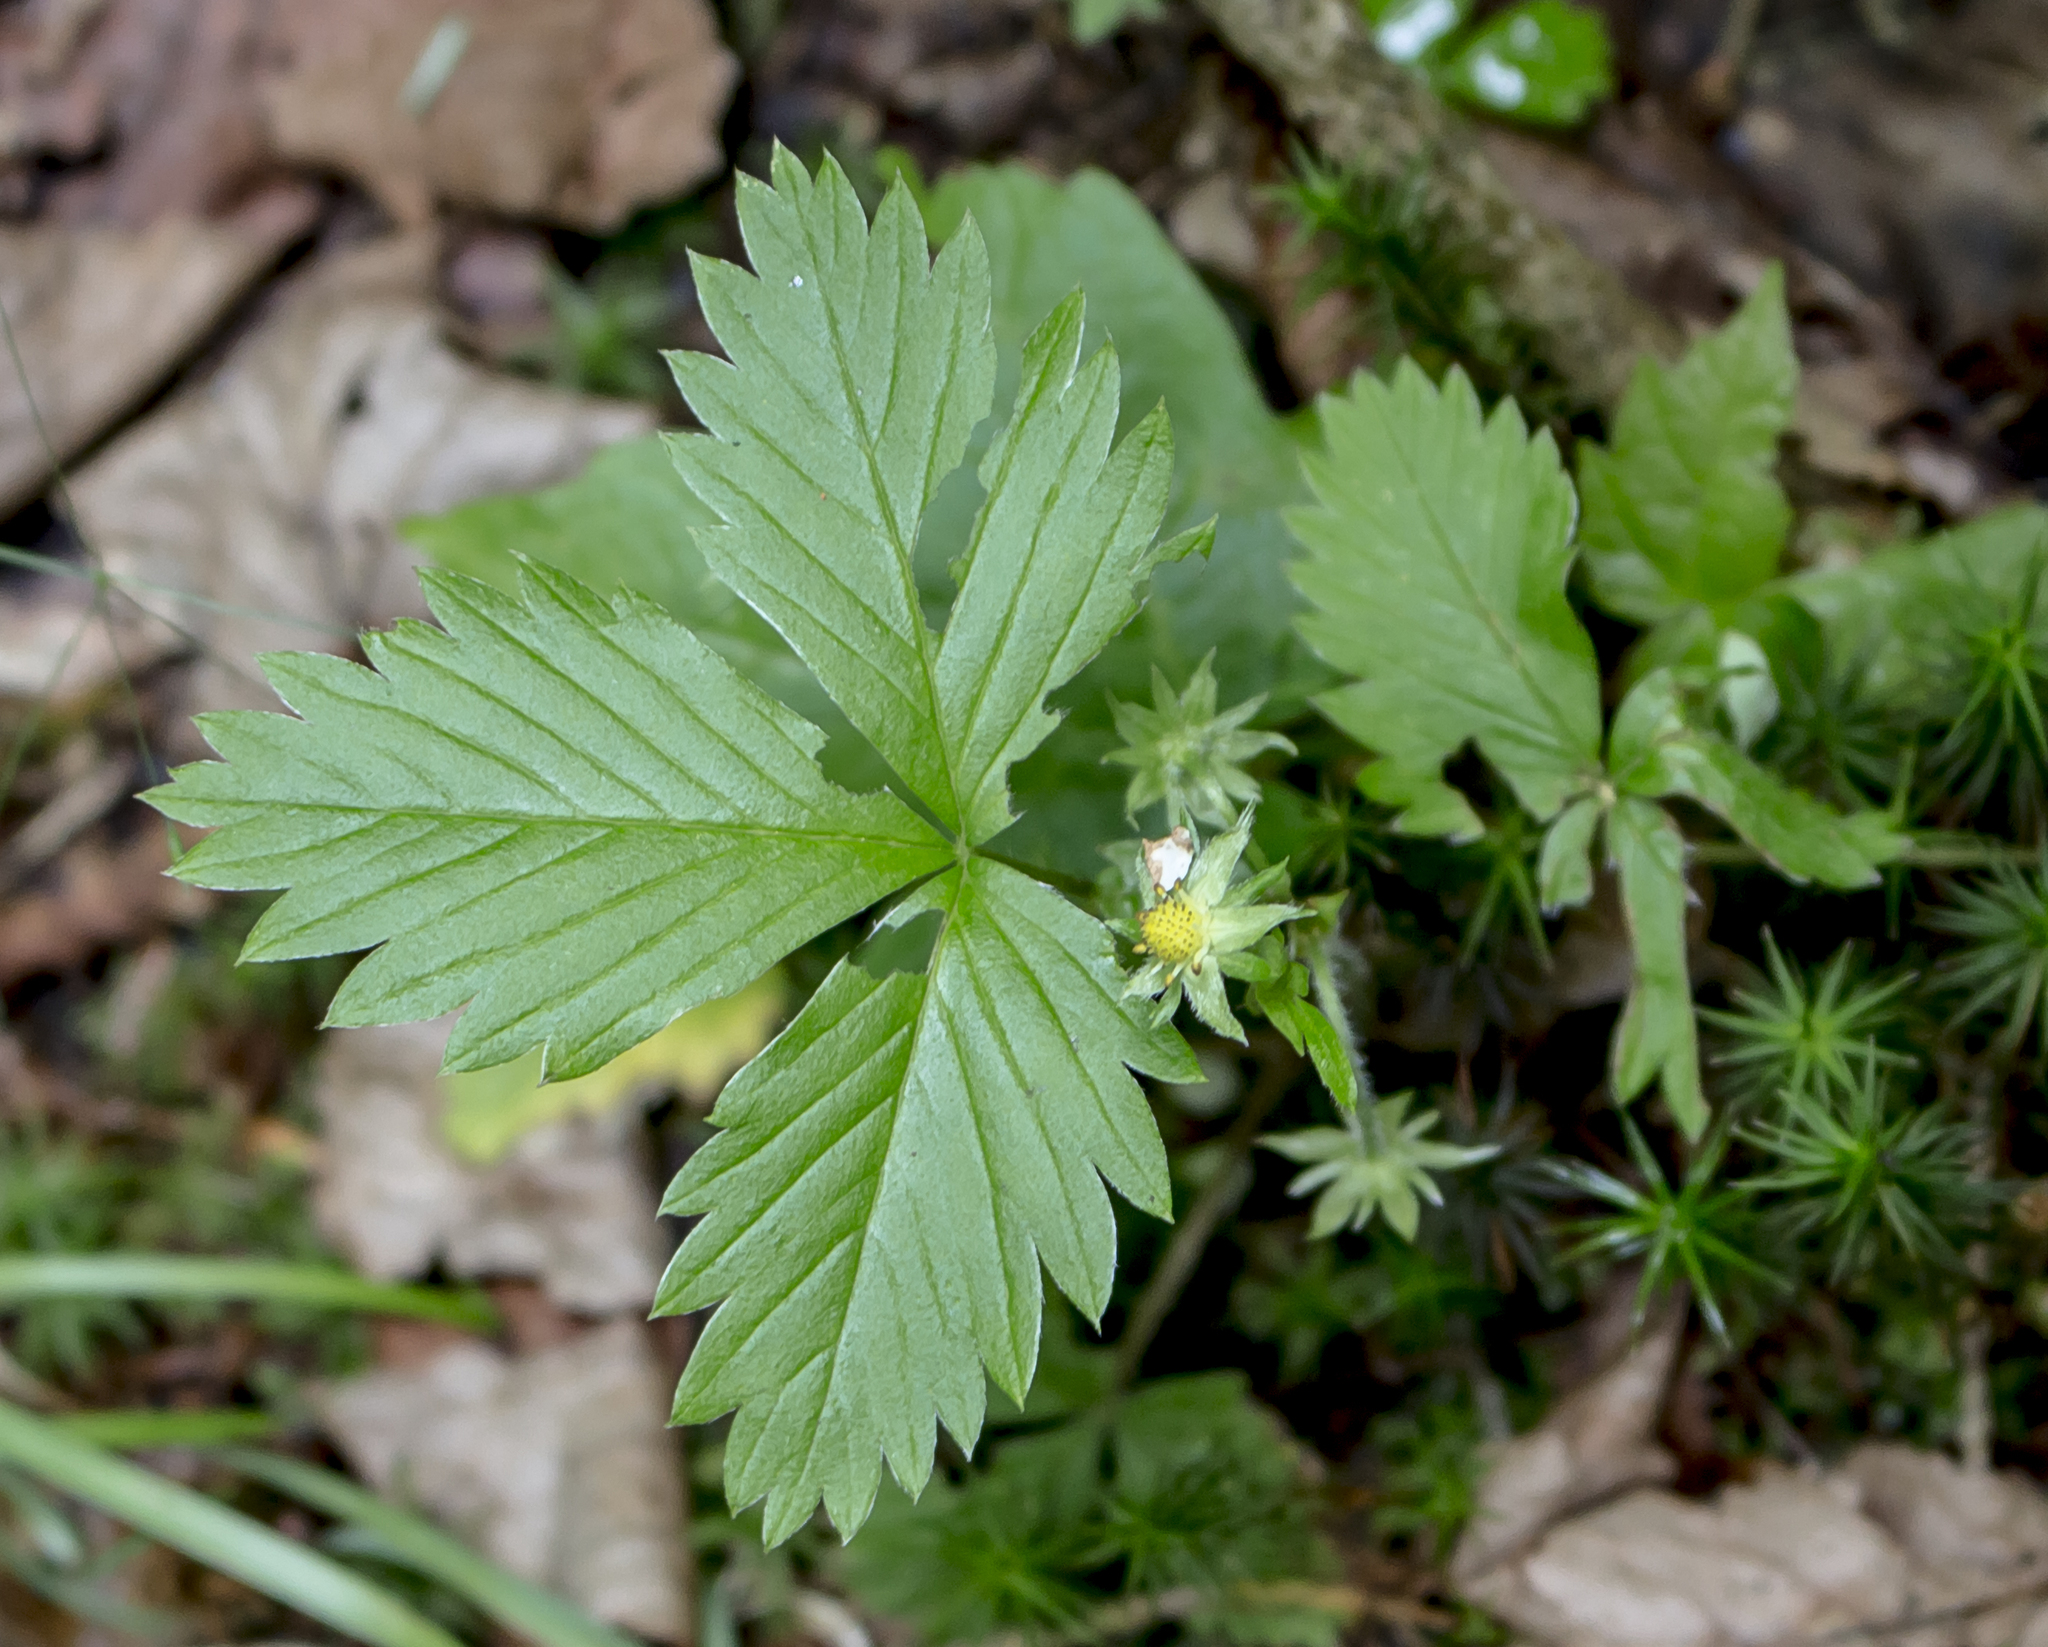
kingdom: Plantae
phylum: Tracheophyta
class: Magnoliopsida
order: Rosales
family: Rosaceae
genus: Fragaria
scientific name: Fragaria vesca
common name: Wild strawberry
